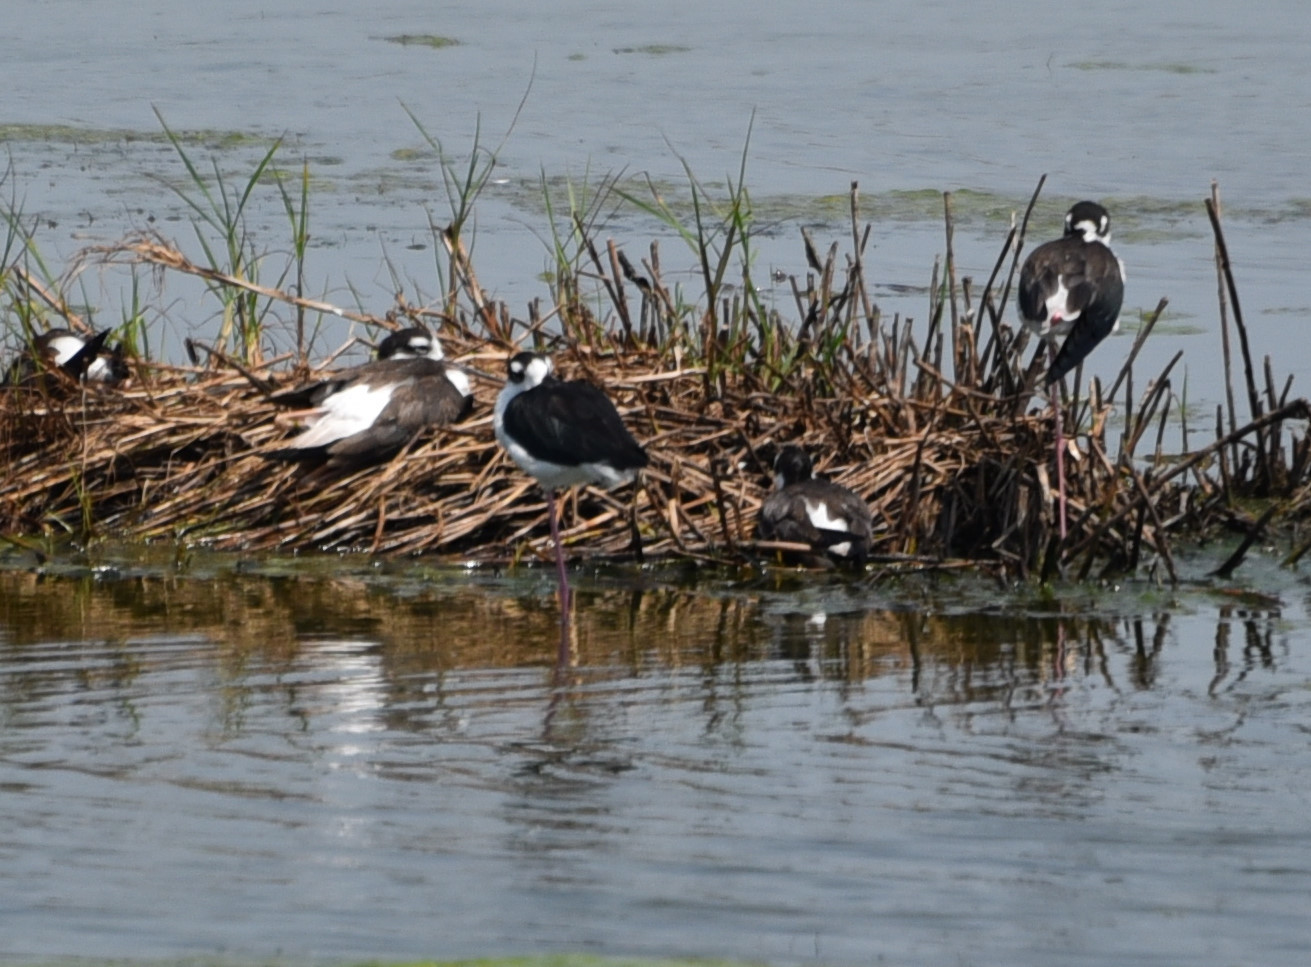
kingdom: Animalia
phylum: Chordata
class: Aves
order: Charadriiformes
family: Recurvirostridae
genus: Himantopus
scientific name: Himantopus mexicanus
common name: Black-necked stilt
